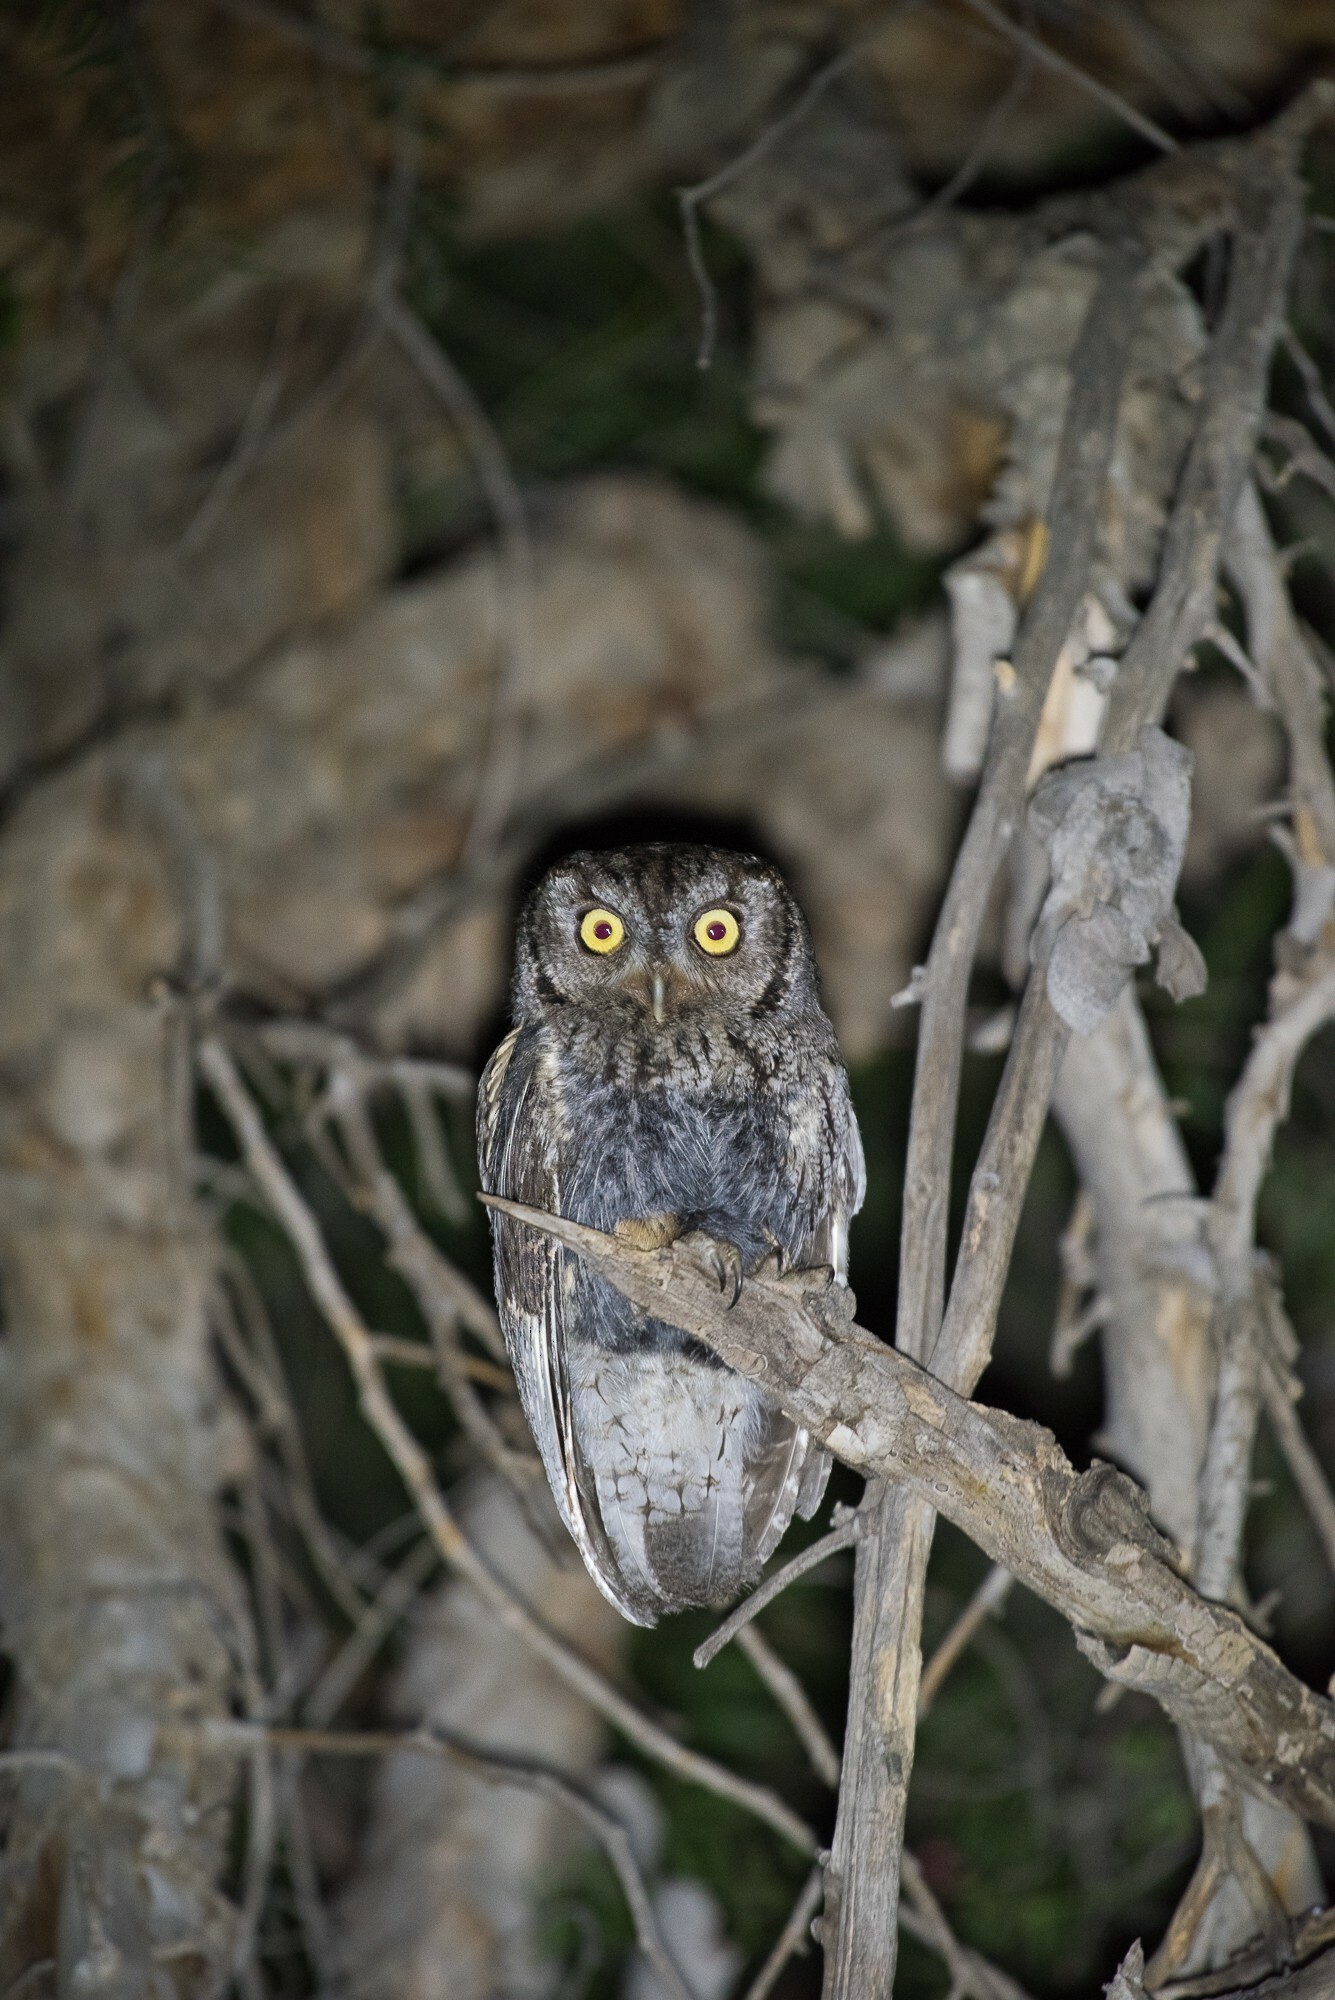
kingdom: Animalia
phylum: Chordata
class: Aves
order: Strigiformes
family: Strigidae
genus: Megascops
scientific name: Megascops kennicottii
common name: Western screech-owl
